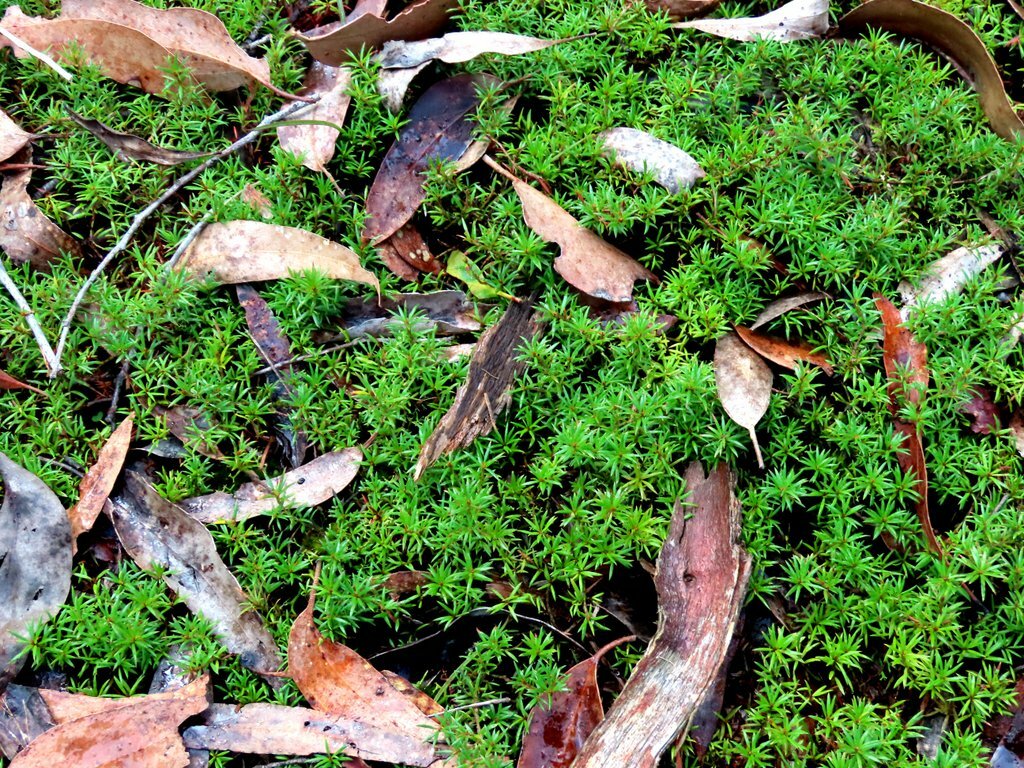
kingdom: Plantae
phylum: Tracheophyta
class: Magnoliopsida
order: Fabales
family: Fabaceae
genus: Pultenaea
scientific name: Pultenaea pedunculata
